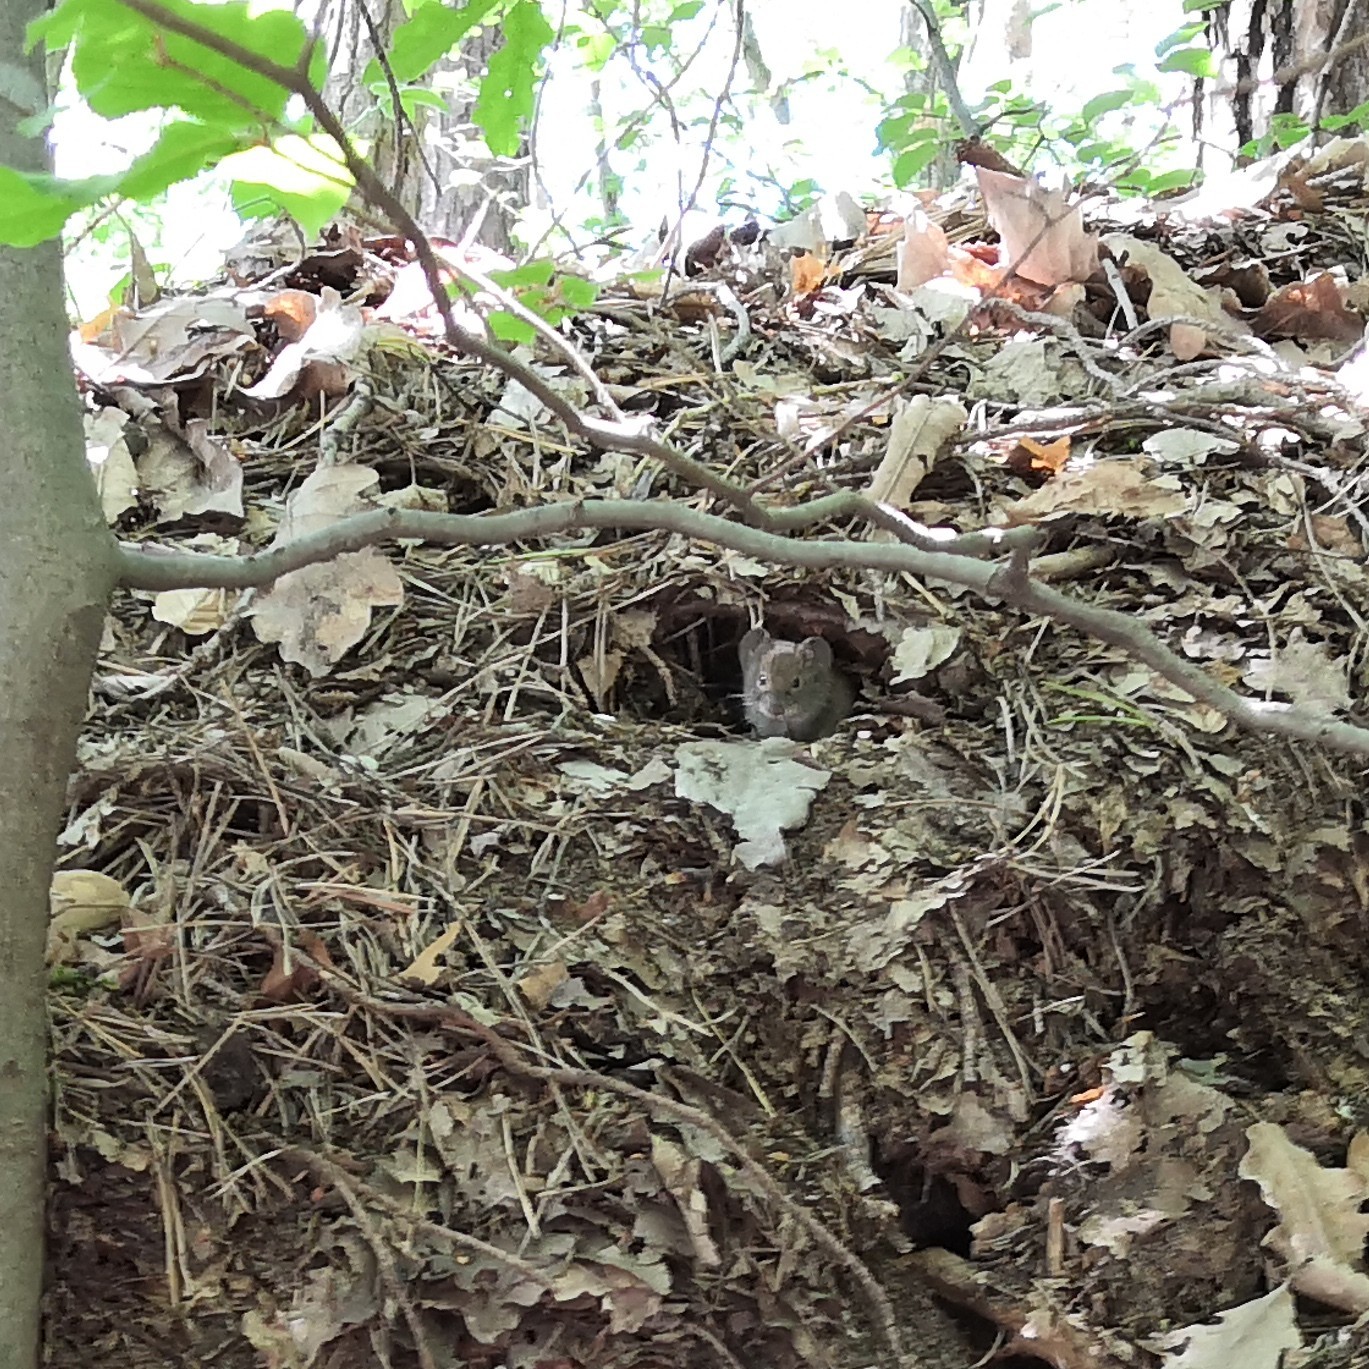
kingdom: Animalia
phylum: Chordata
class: Mammalia
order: Rodentia
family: Cricetidae
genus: Myodes
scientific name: Myodes glareolus
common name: Bank vole
